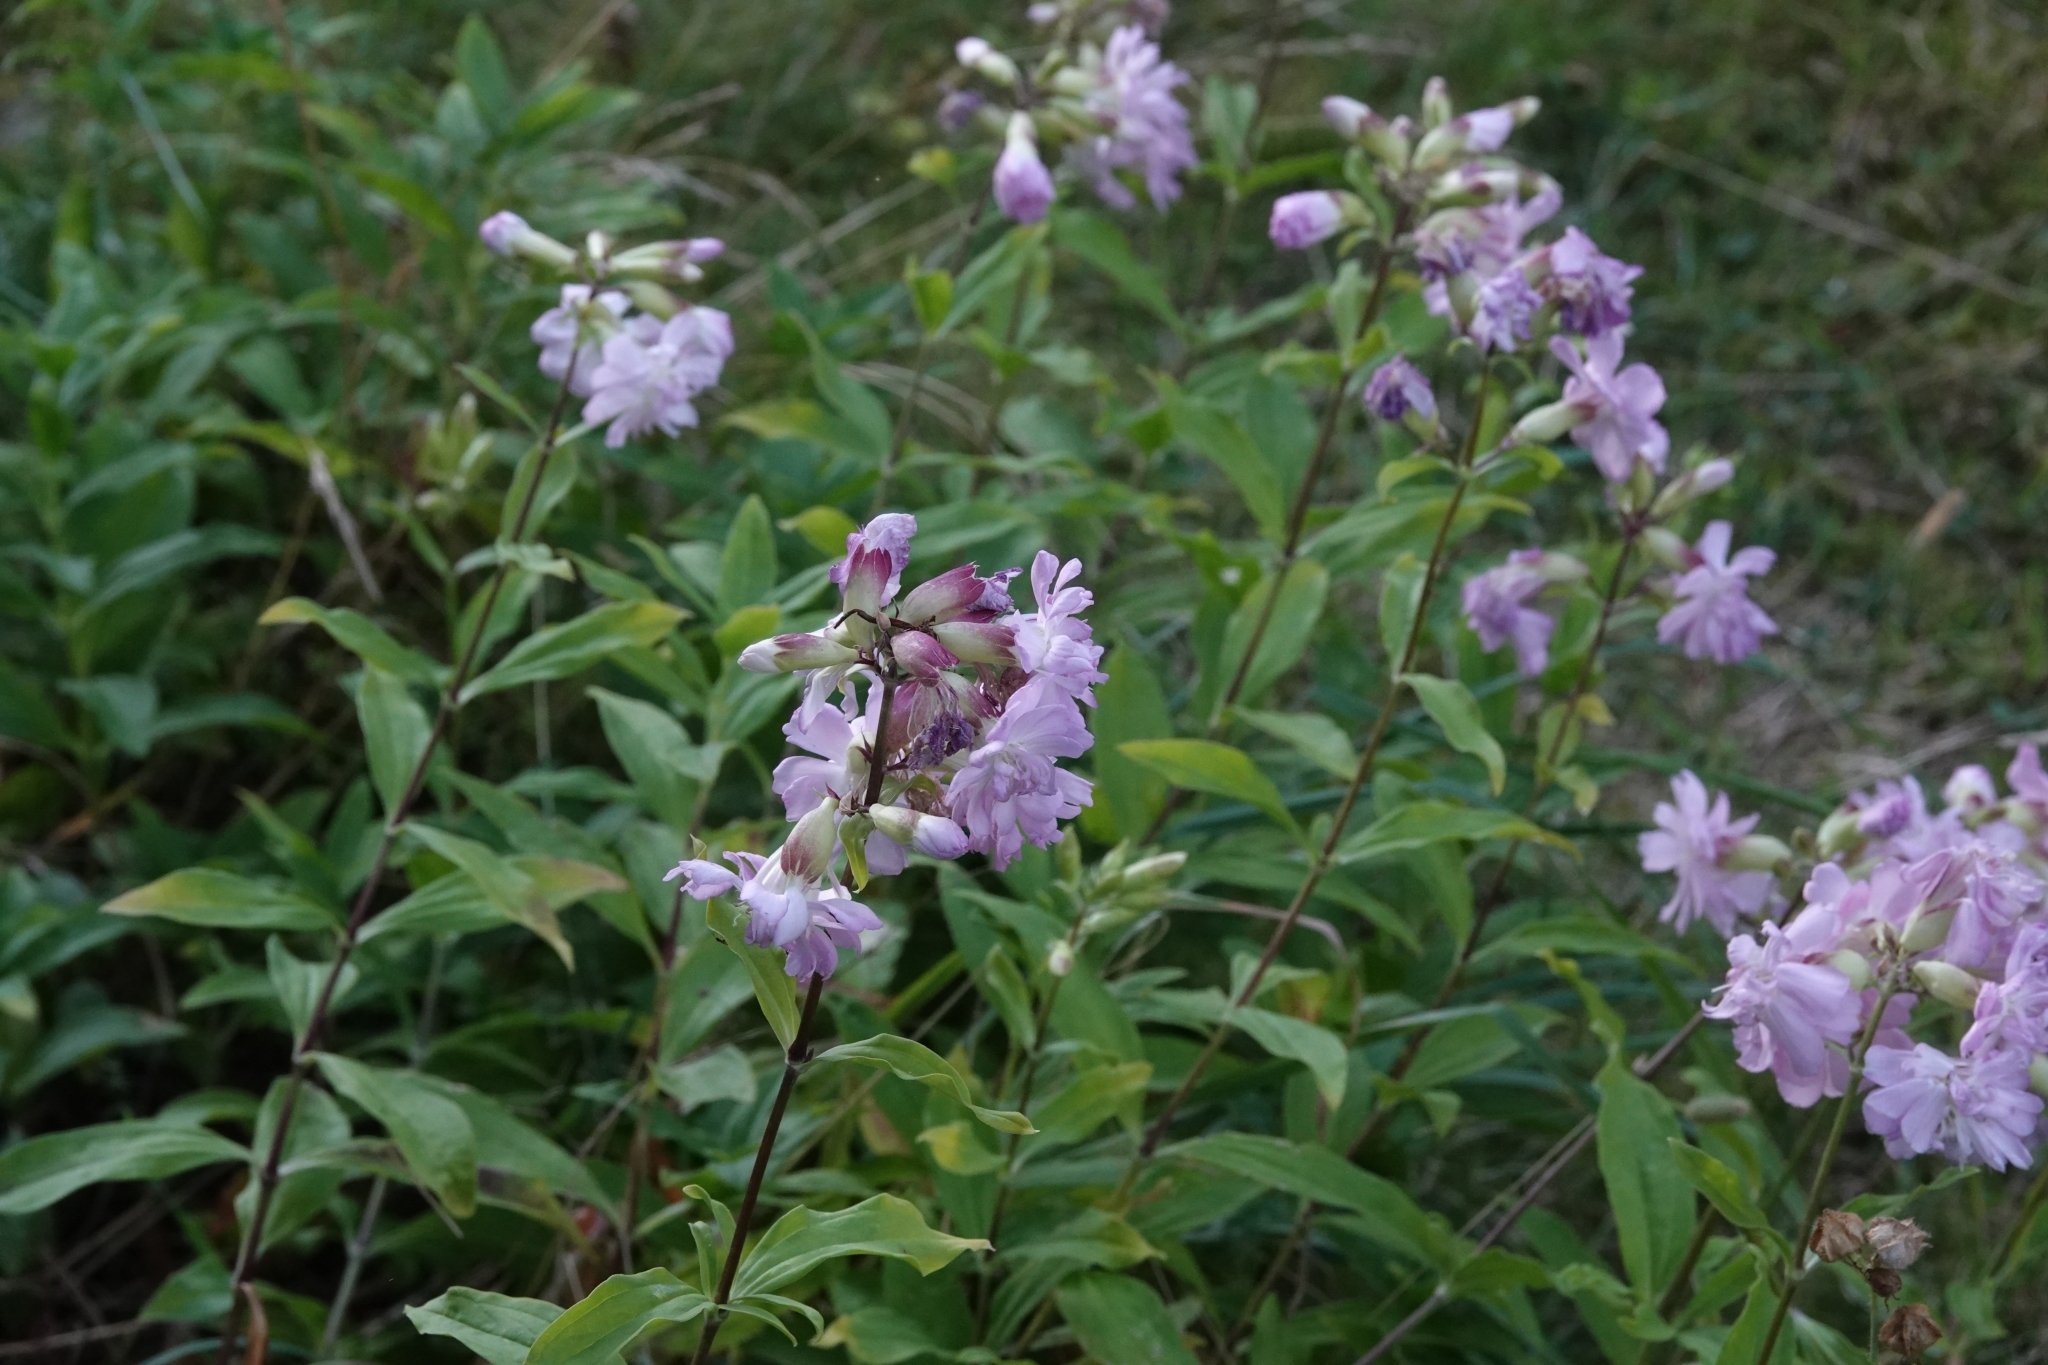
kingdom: Plantae
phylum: Tracheophyta
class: Magnoliopsida
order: Caryophyllales
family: Caryophyllaceae
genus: Saponaria
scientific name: Saponaria officinalis
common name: Soapwort
